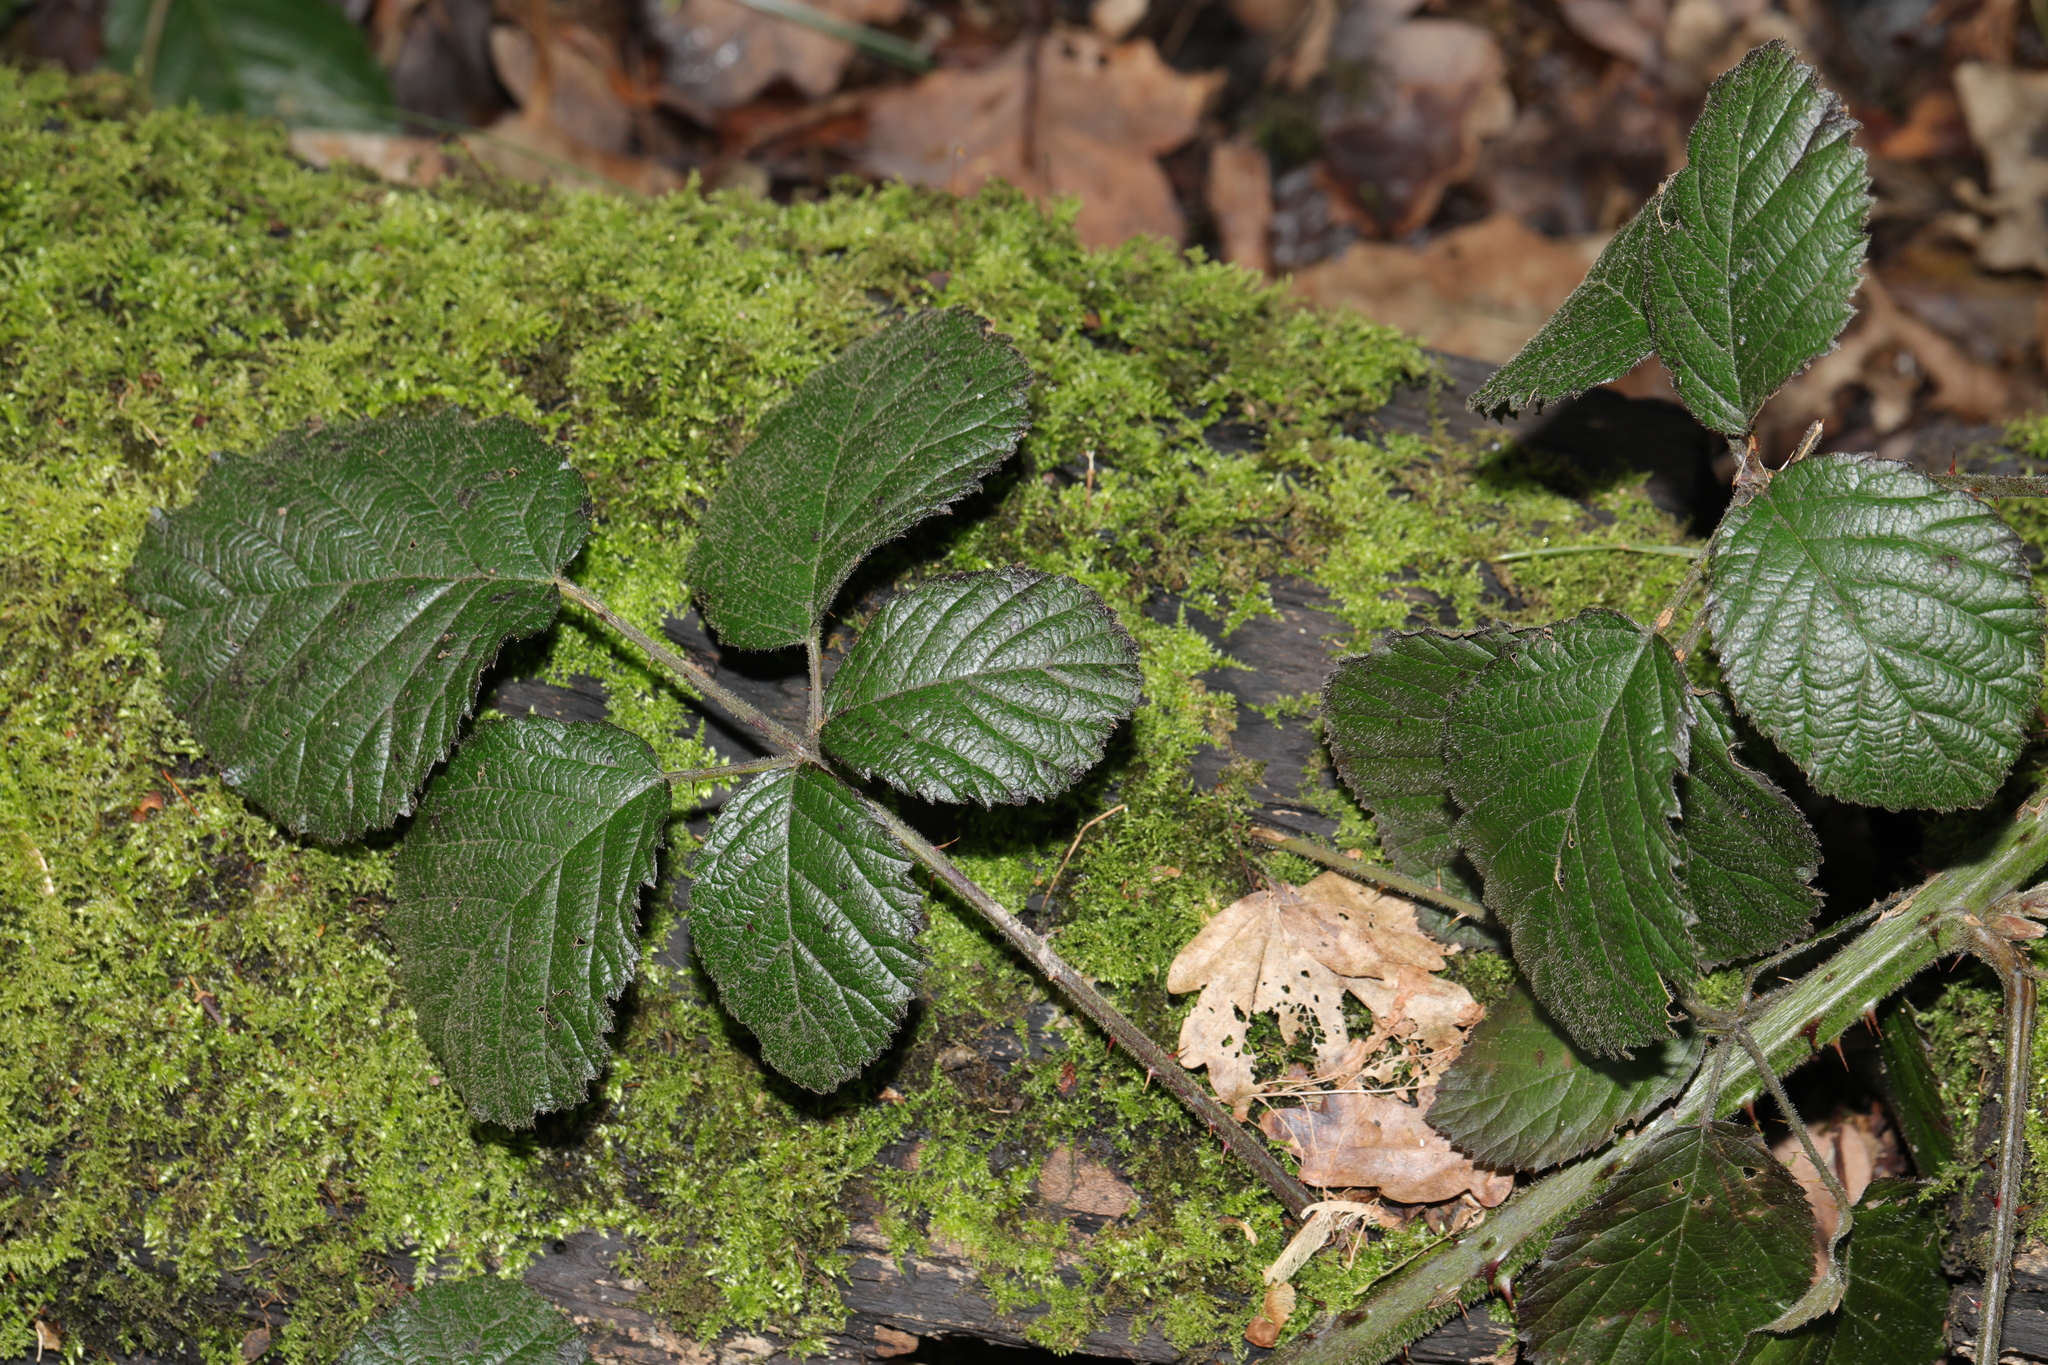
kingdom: Plantae
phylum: Tracheophyta
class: Magnoliopsida
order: Rosales
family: Rosaceae
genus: Rubus
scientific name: Rubus vestitus
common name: European blackberry
